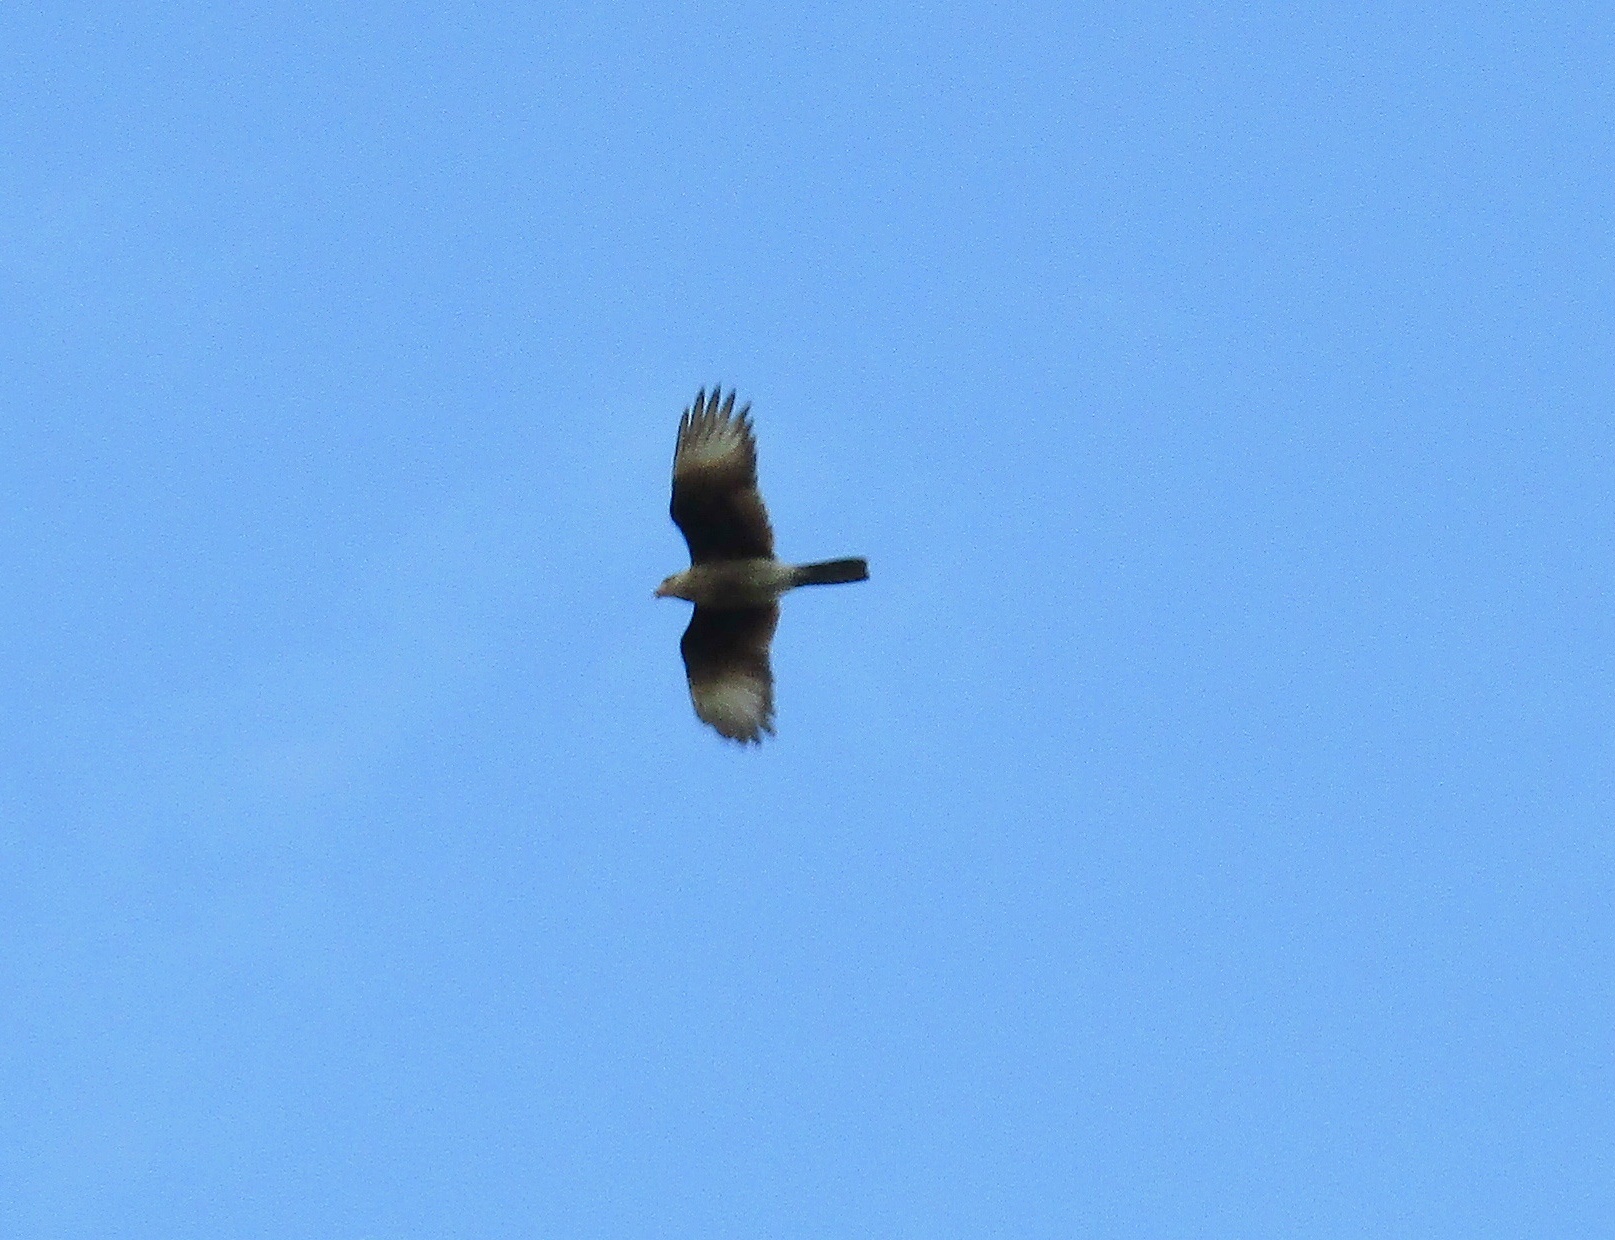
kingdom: Animalia
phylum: Chordata
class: Aves
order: Falconiformes
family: Falconidae
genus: Daptrius
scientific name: Daptrius
